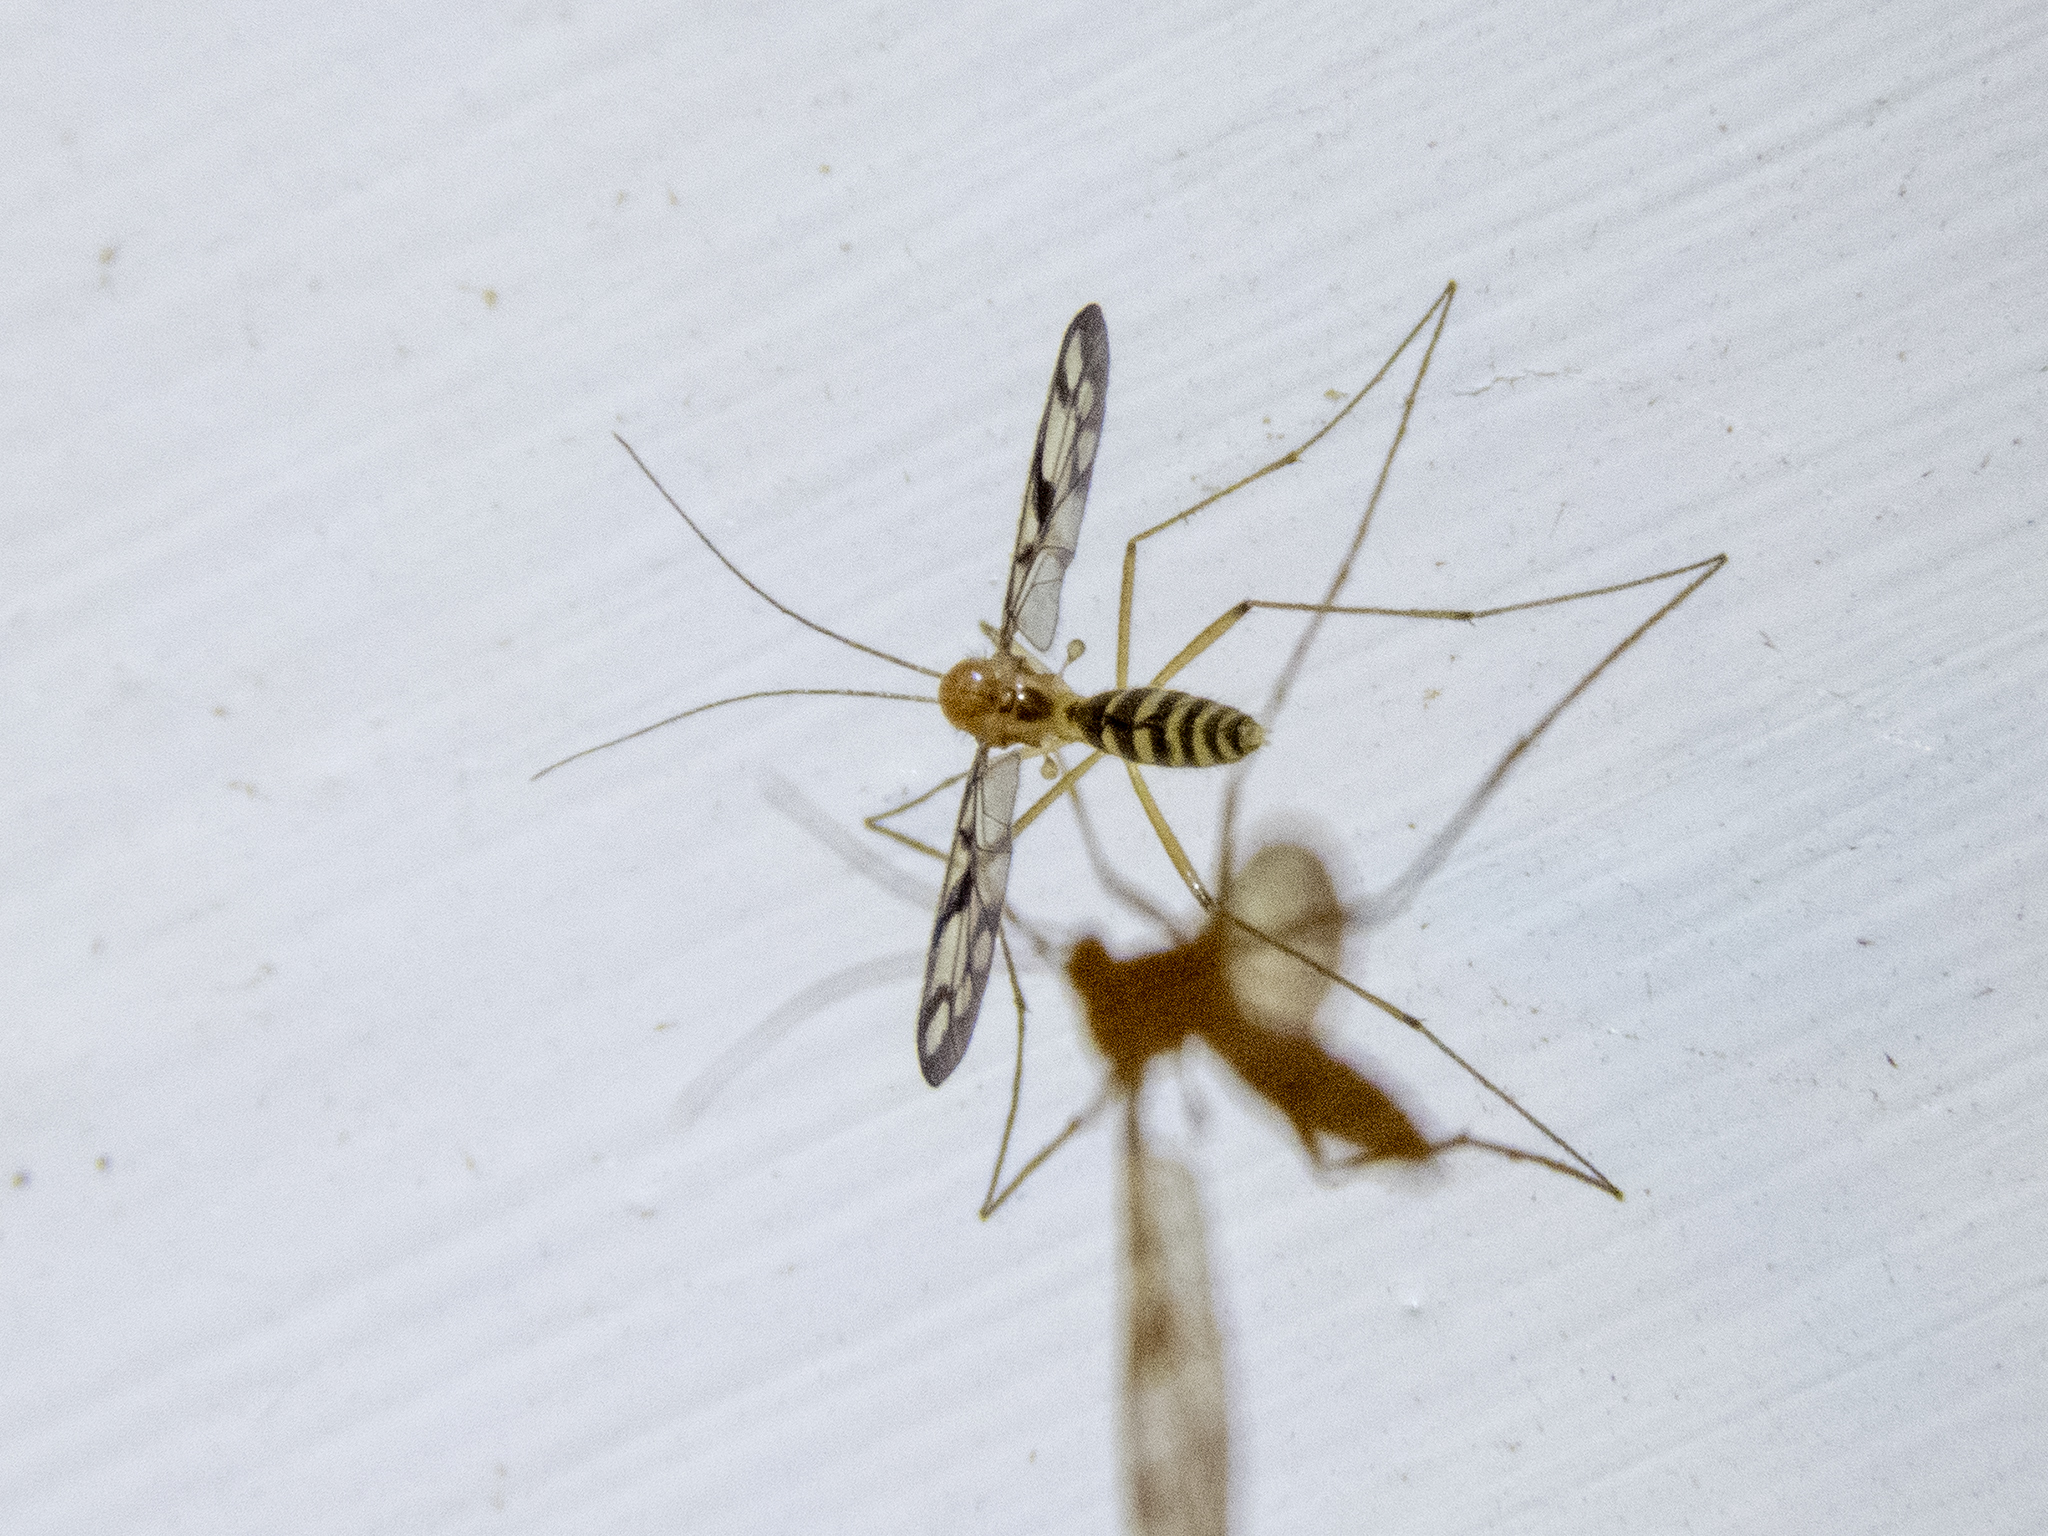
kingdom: Animalia
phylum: Arthropoda
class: Insecta
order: Diptera
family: Keroplatidae
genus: Chiasmoneura
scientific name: Chiasmoneura fenestrata
